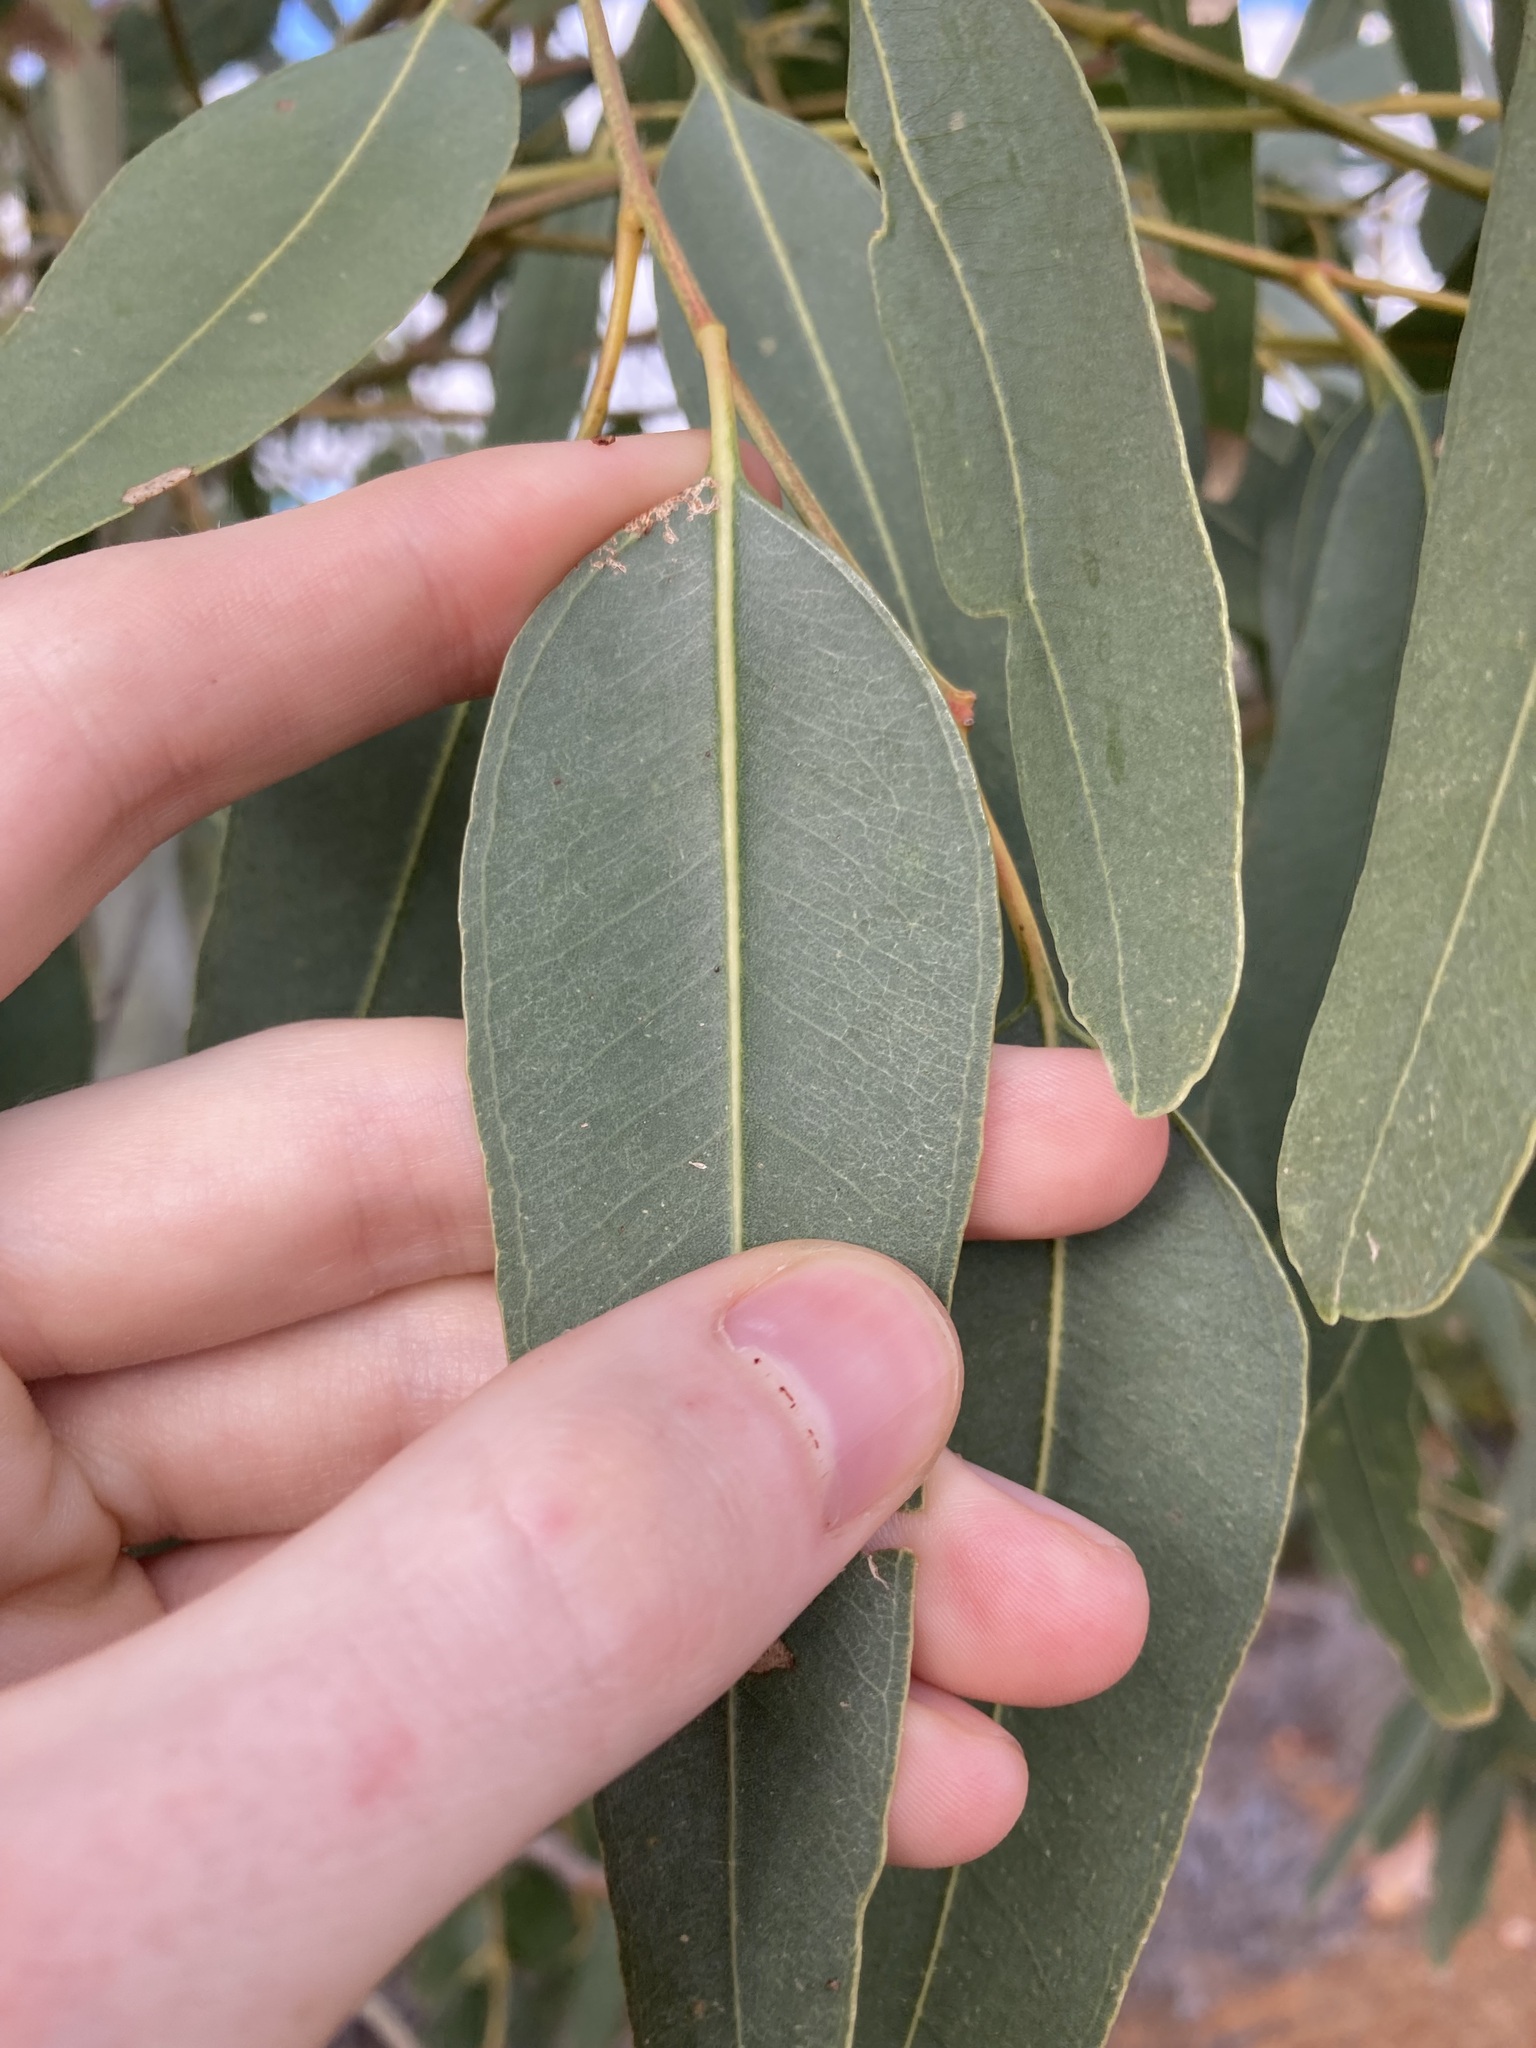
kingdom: Plantae
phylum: Tracheophyta
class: Magnoliopsida
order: Myrtales
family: Myrtaceae
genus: Eucalyptus
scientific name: Eucalyptus camaldulensis
